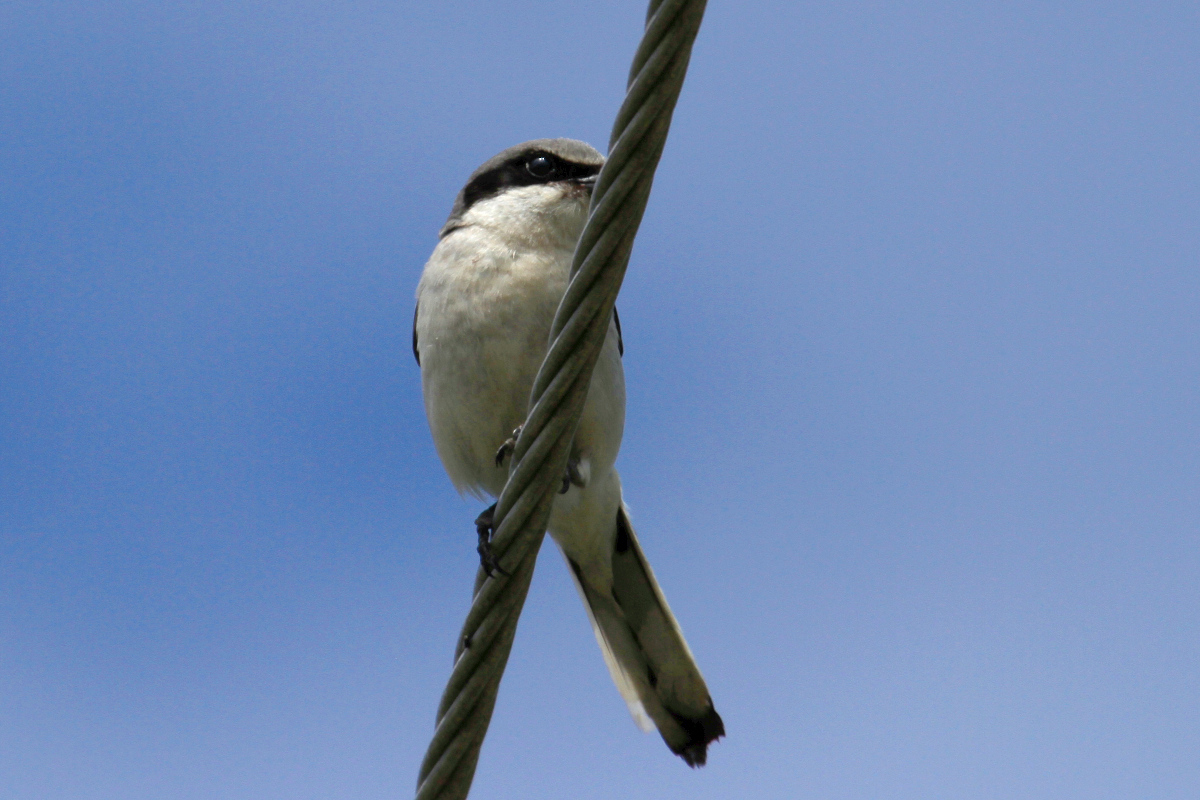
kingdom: Animalia
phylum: Chordata
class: Aves
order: Passeriformes
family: Laniidae
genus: Lanius
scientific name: Lanius ludovicianus
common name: Loggerhead shrike
